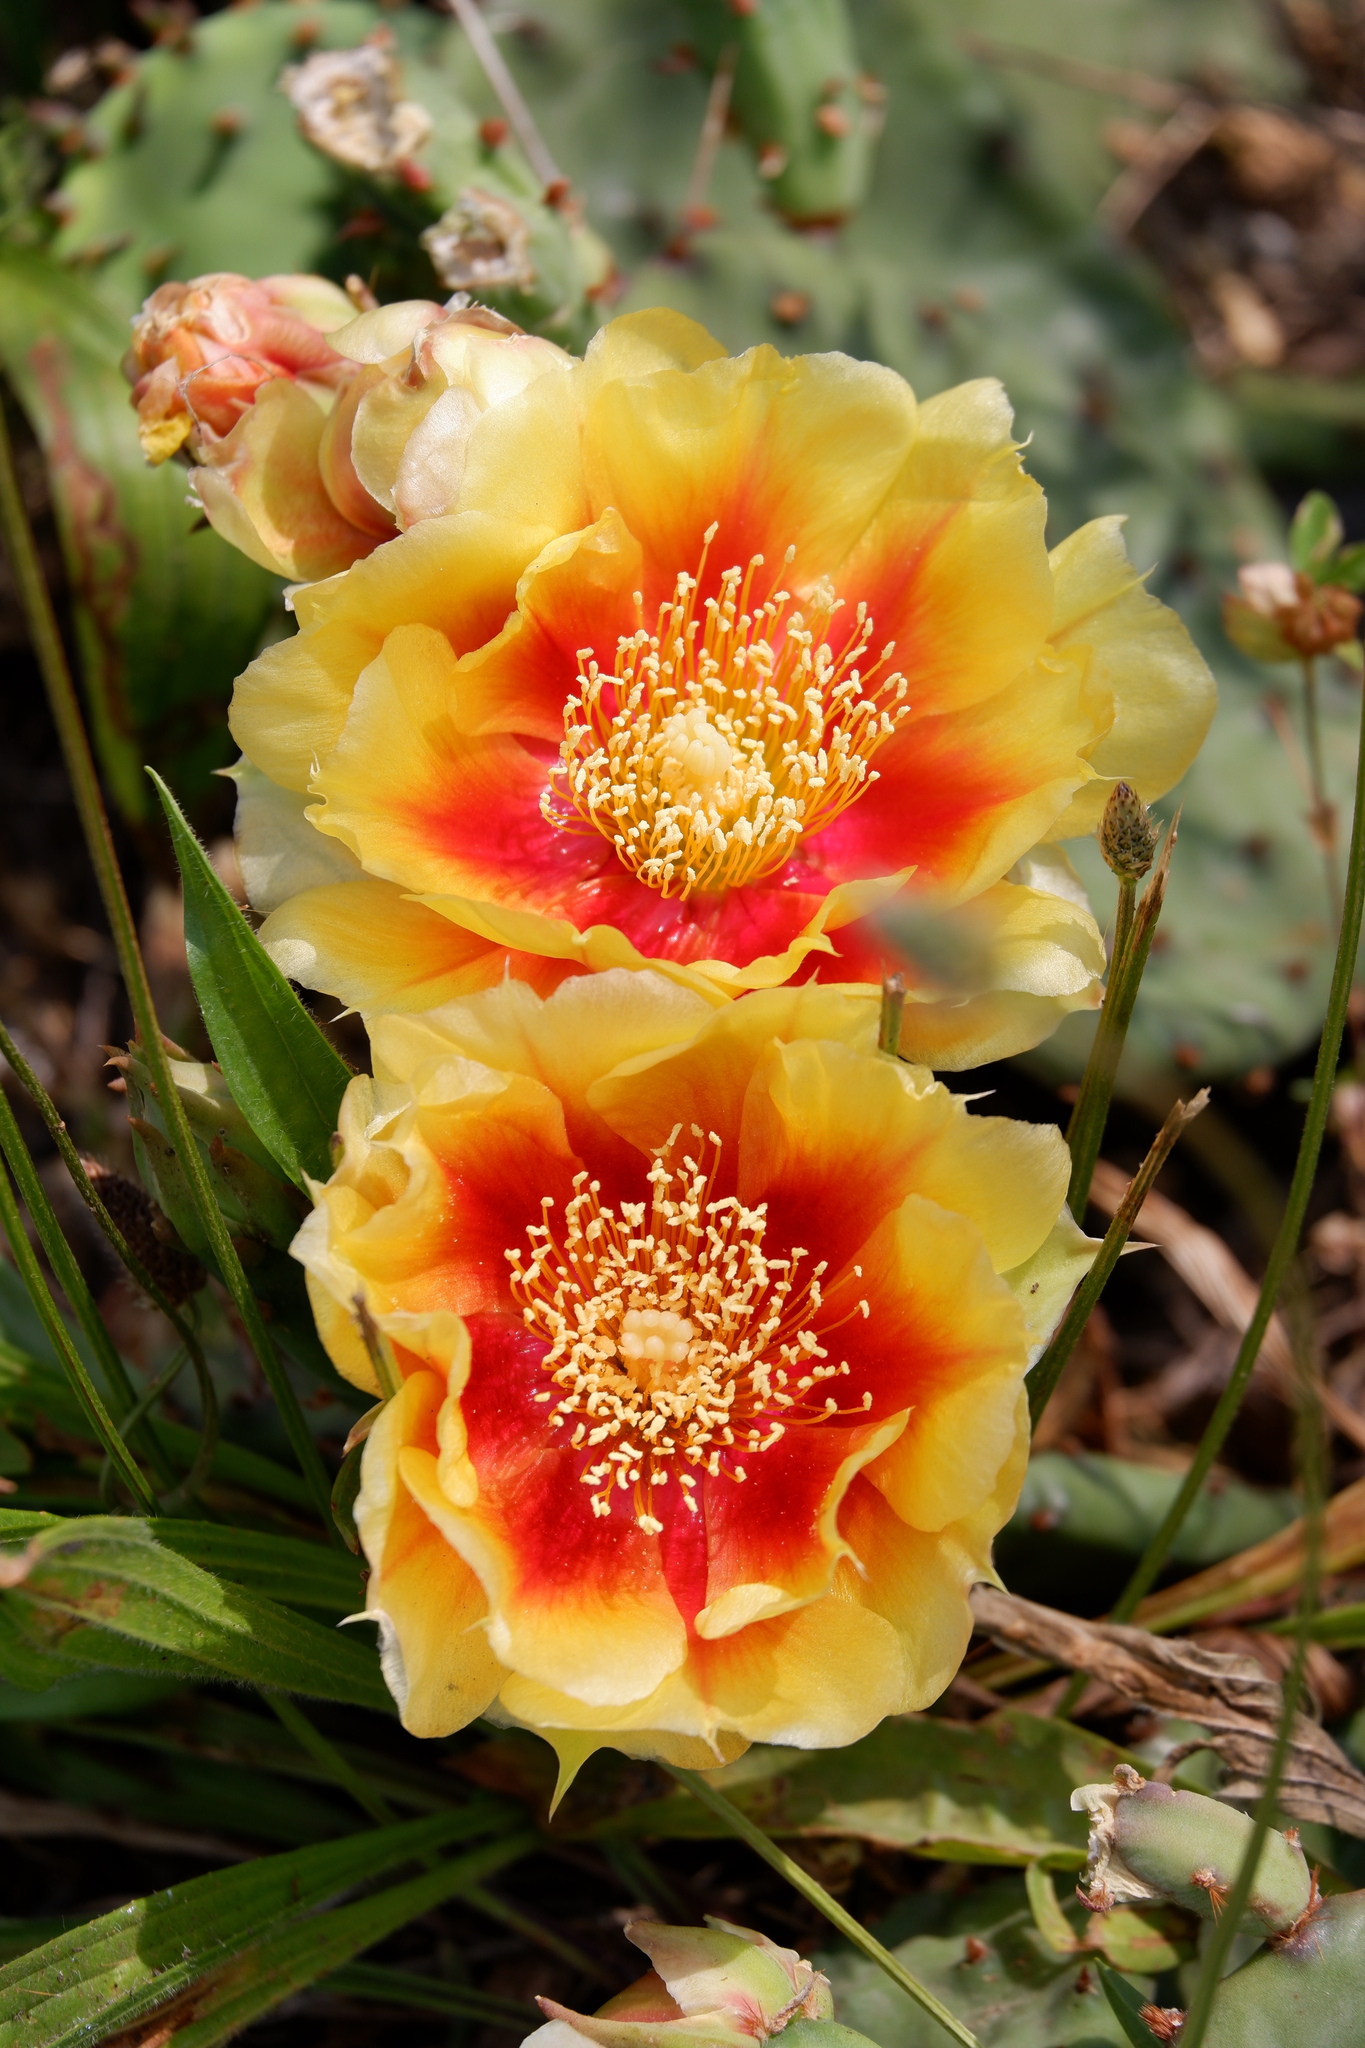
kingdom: Plantae
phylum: Tracheophyta
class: Magnoliopsida
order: Caryophyllales
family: Cactaceae
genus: Opuntia
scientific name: Opuntia humifusa
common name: Eastern prickly-pear
